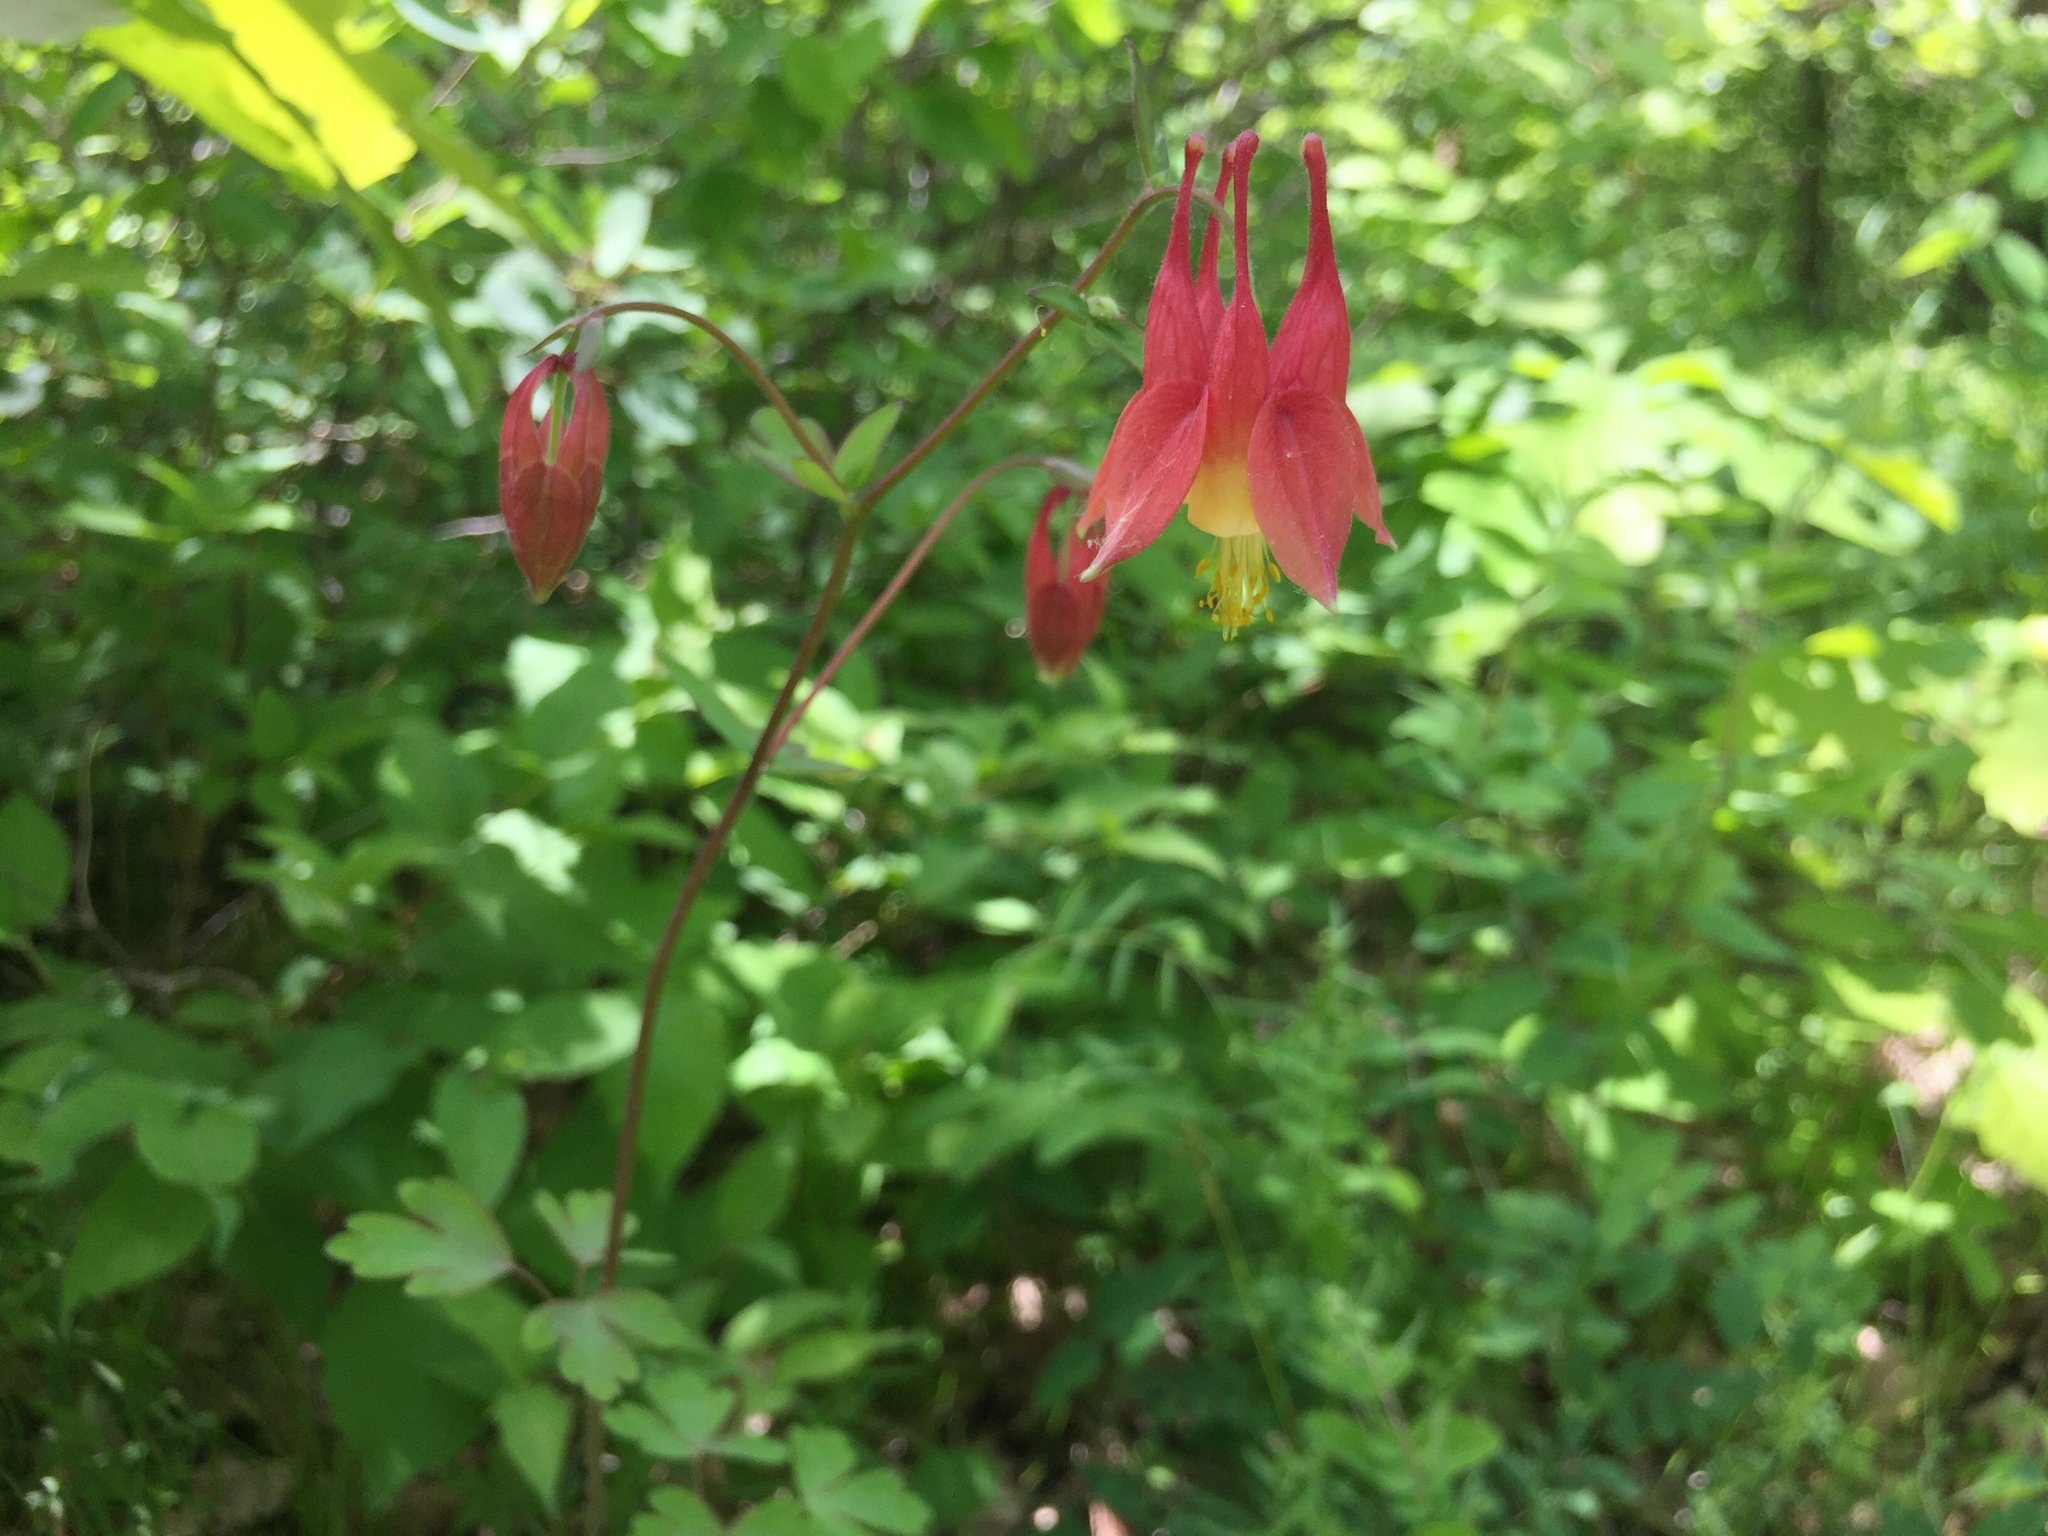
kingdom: Plantae
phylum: Tracheophyta
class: Magnoliopsida
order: Ranunculales
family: Ranunculaceae
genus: Aquilegia
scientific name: Aquilegia canadensis
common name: American columbine
